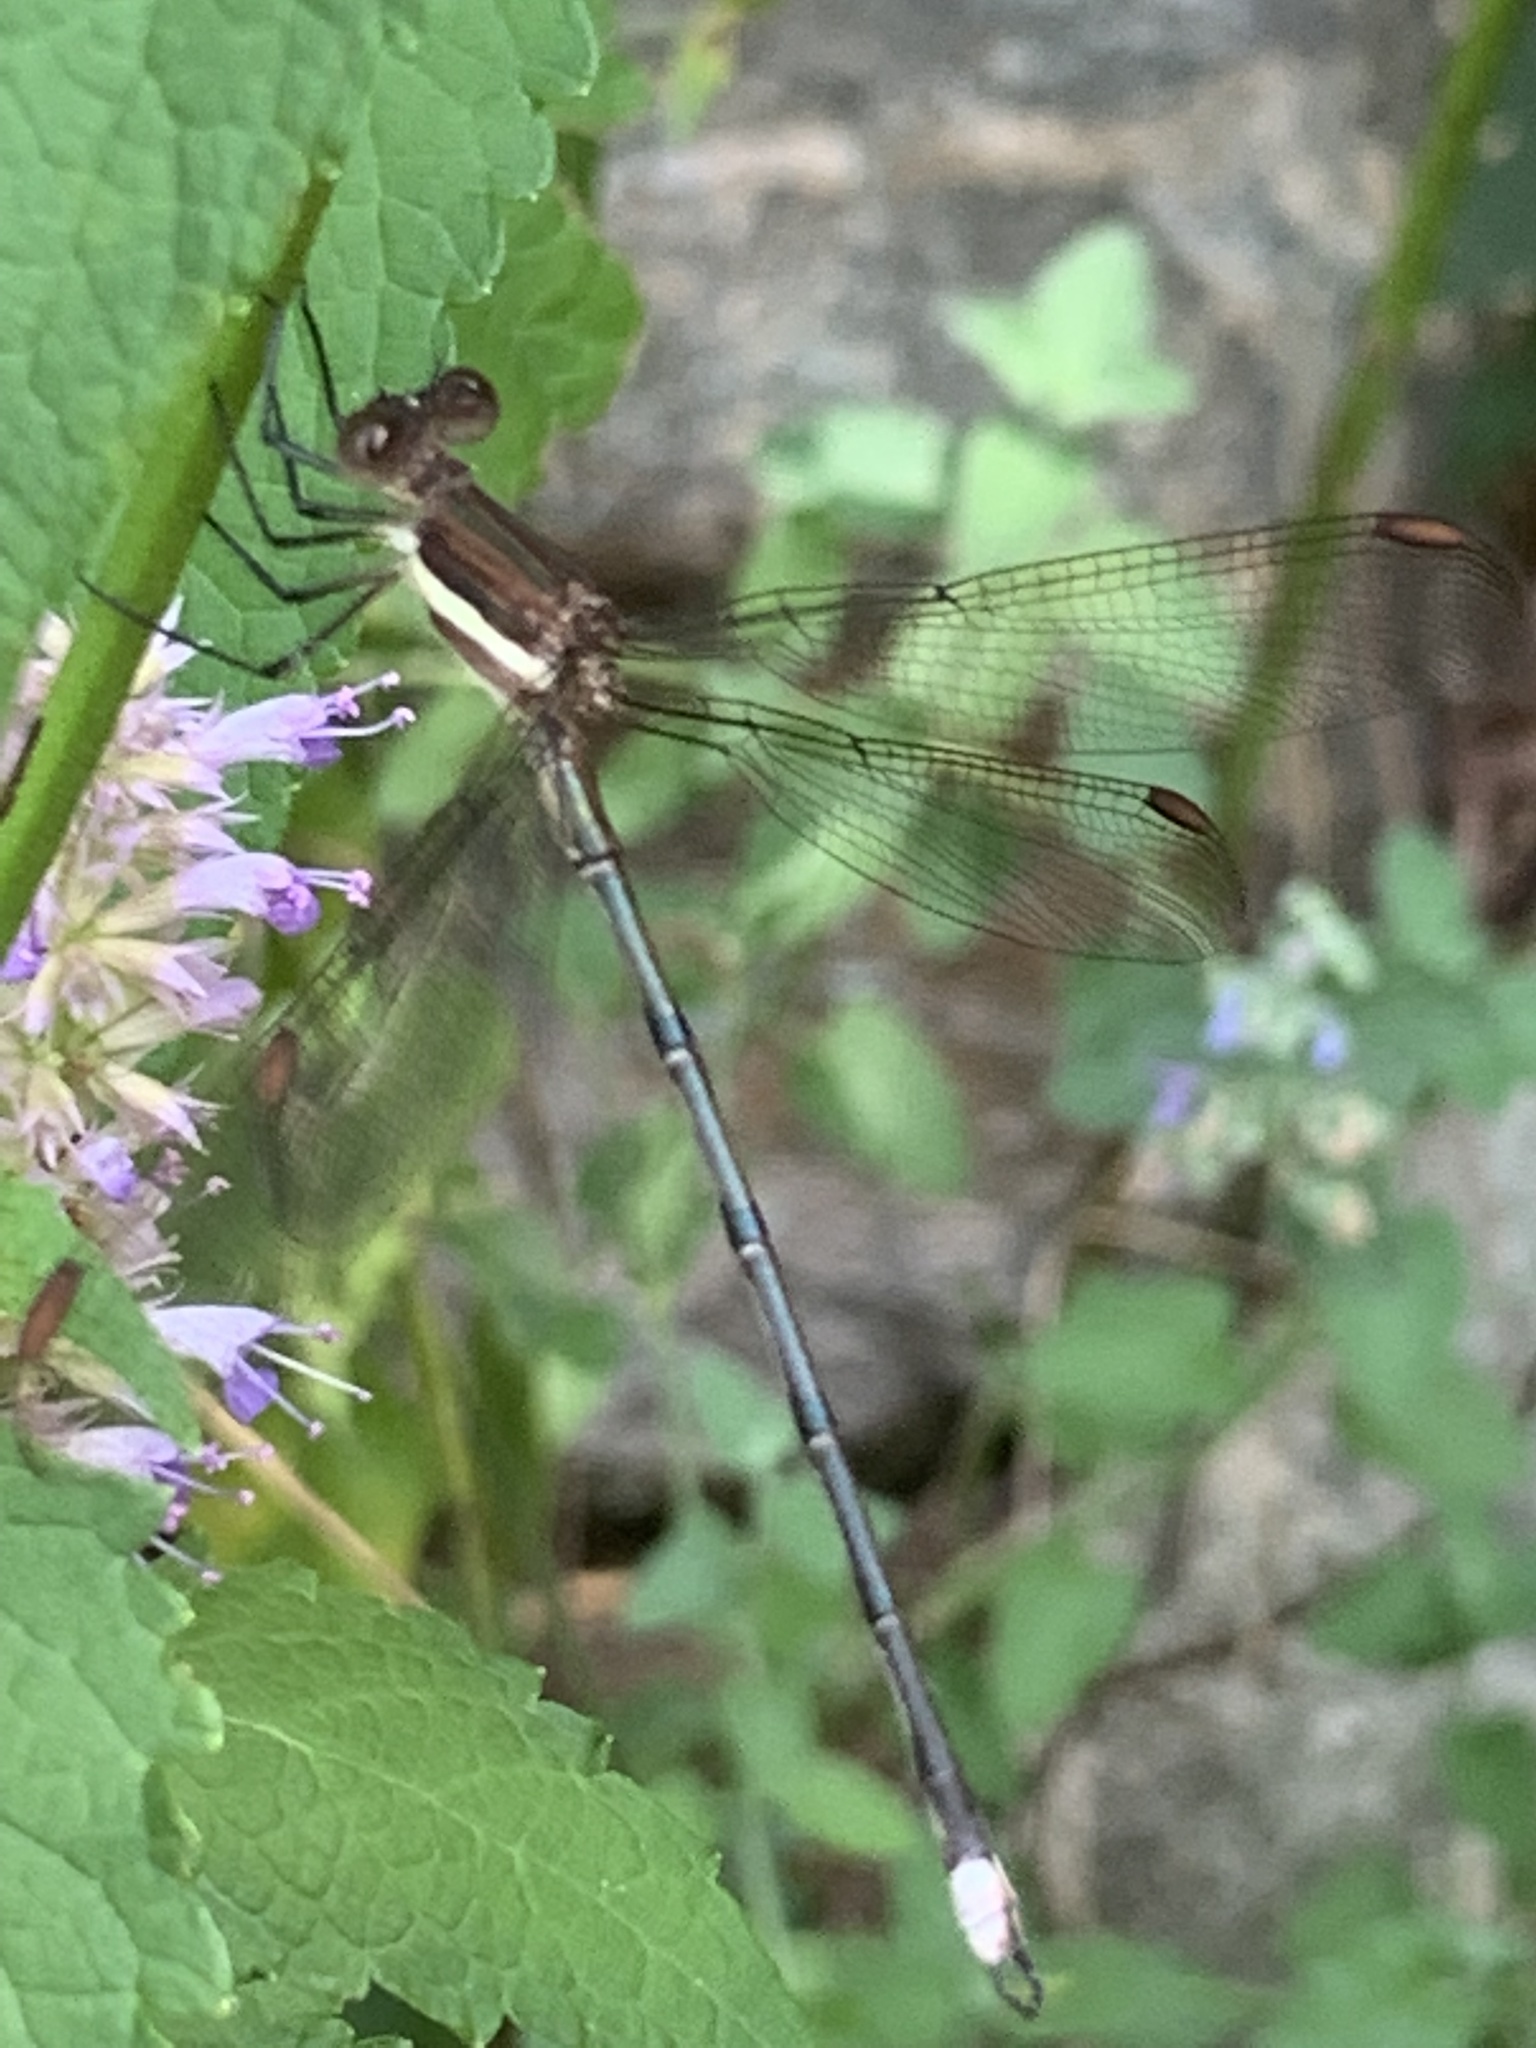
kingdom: Animalia
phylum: Arthropoda
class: Insecta
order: Odonata
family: Lestidae
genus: Archilestes
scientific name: Archilestes grandis
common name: Great spreadwing
